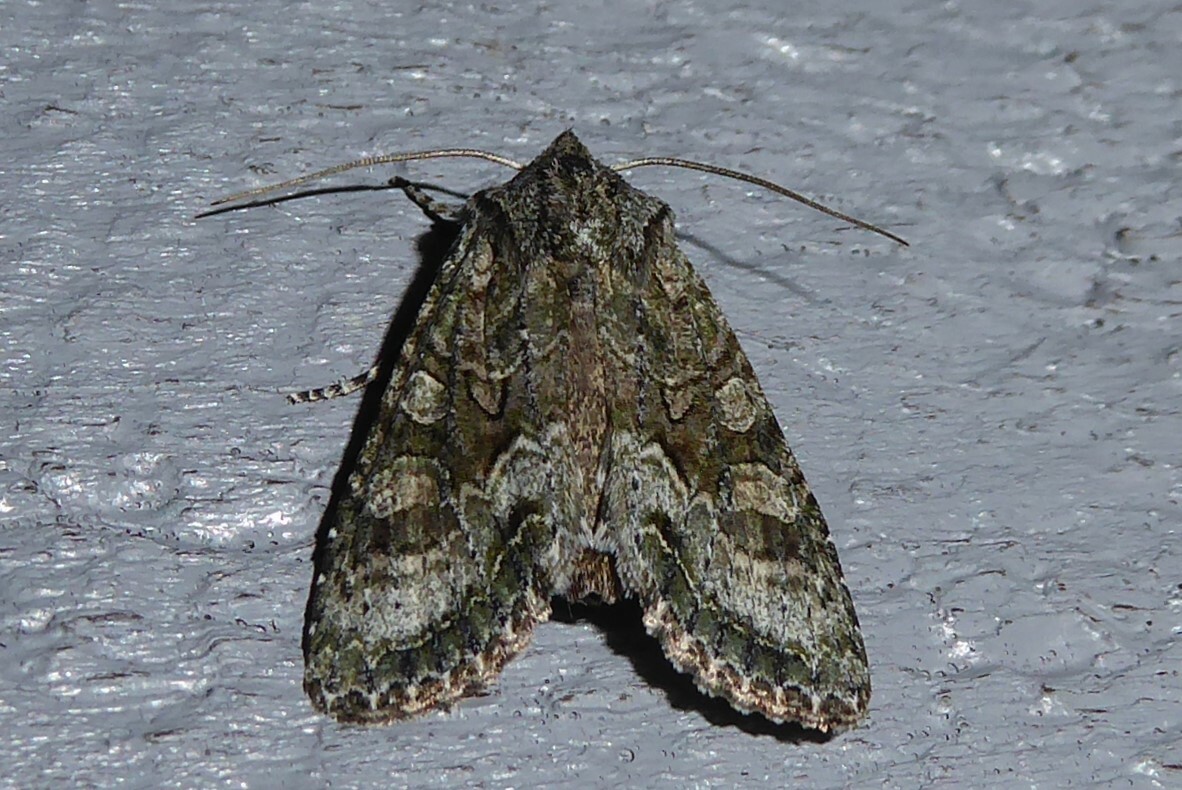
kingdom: Animalia
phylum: Arthropoda
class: Insecta
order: Lepidoptera
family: Noctuidae
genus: Ichneutica
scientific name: Ichneutica mutans
